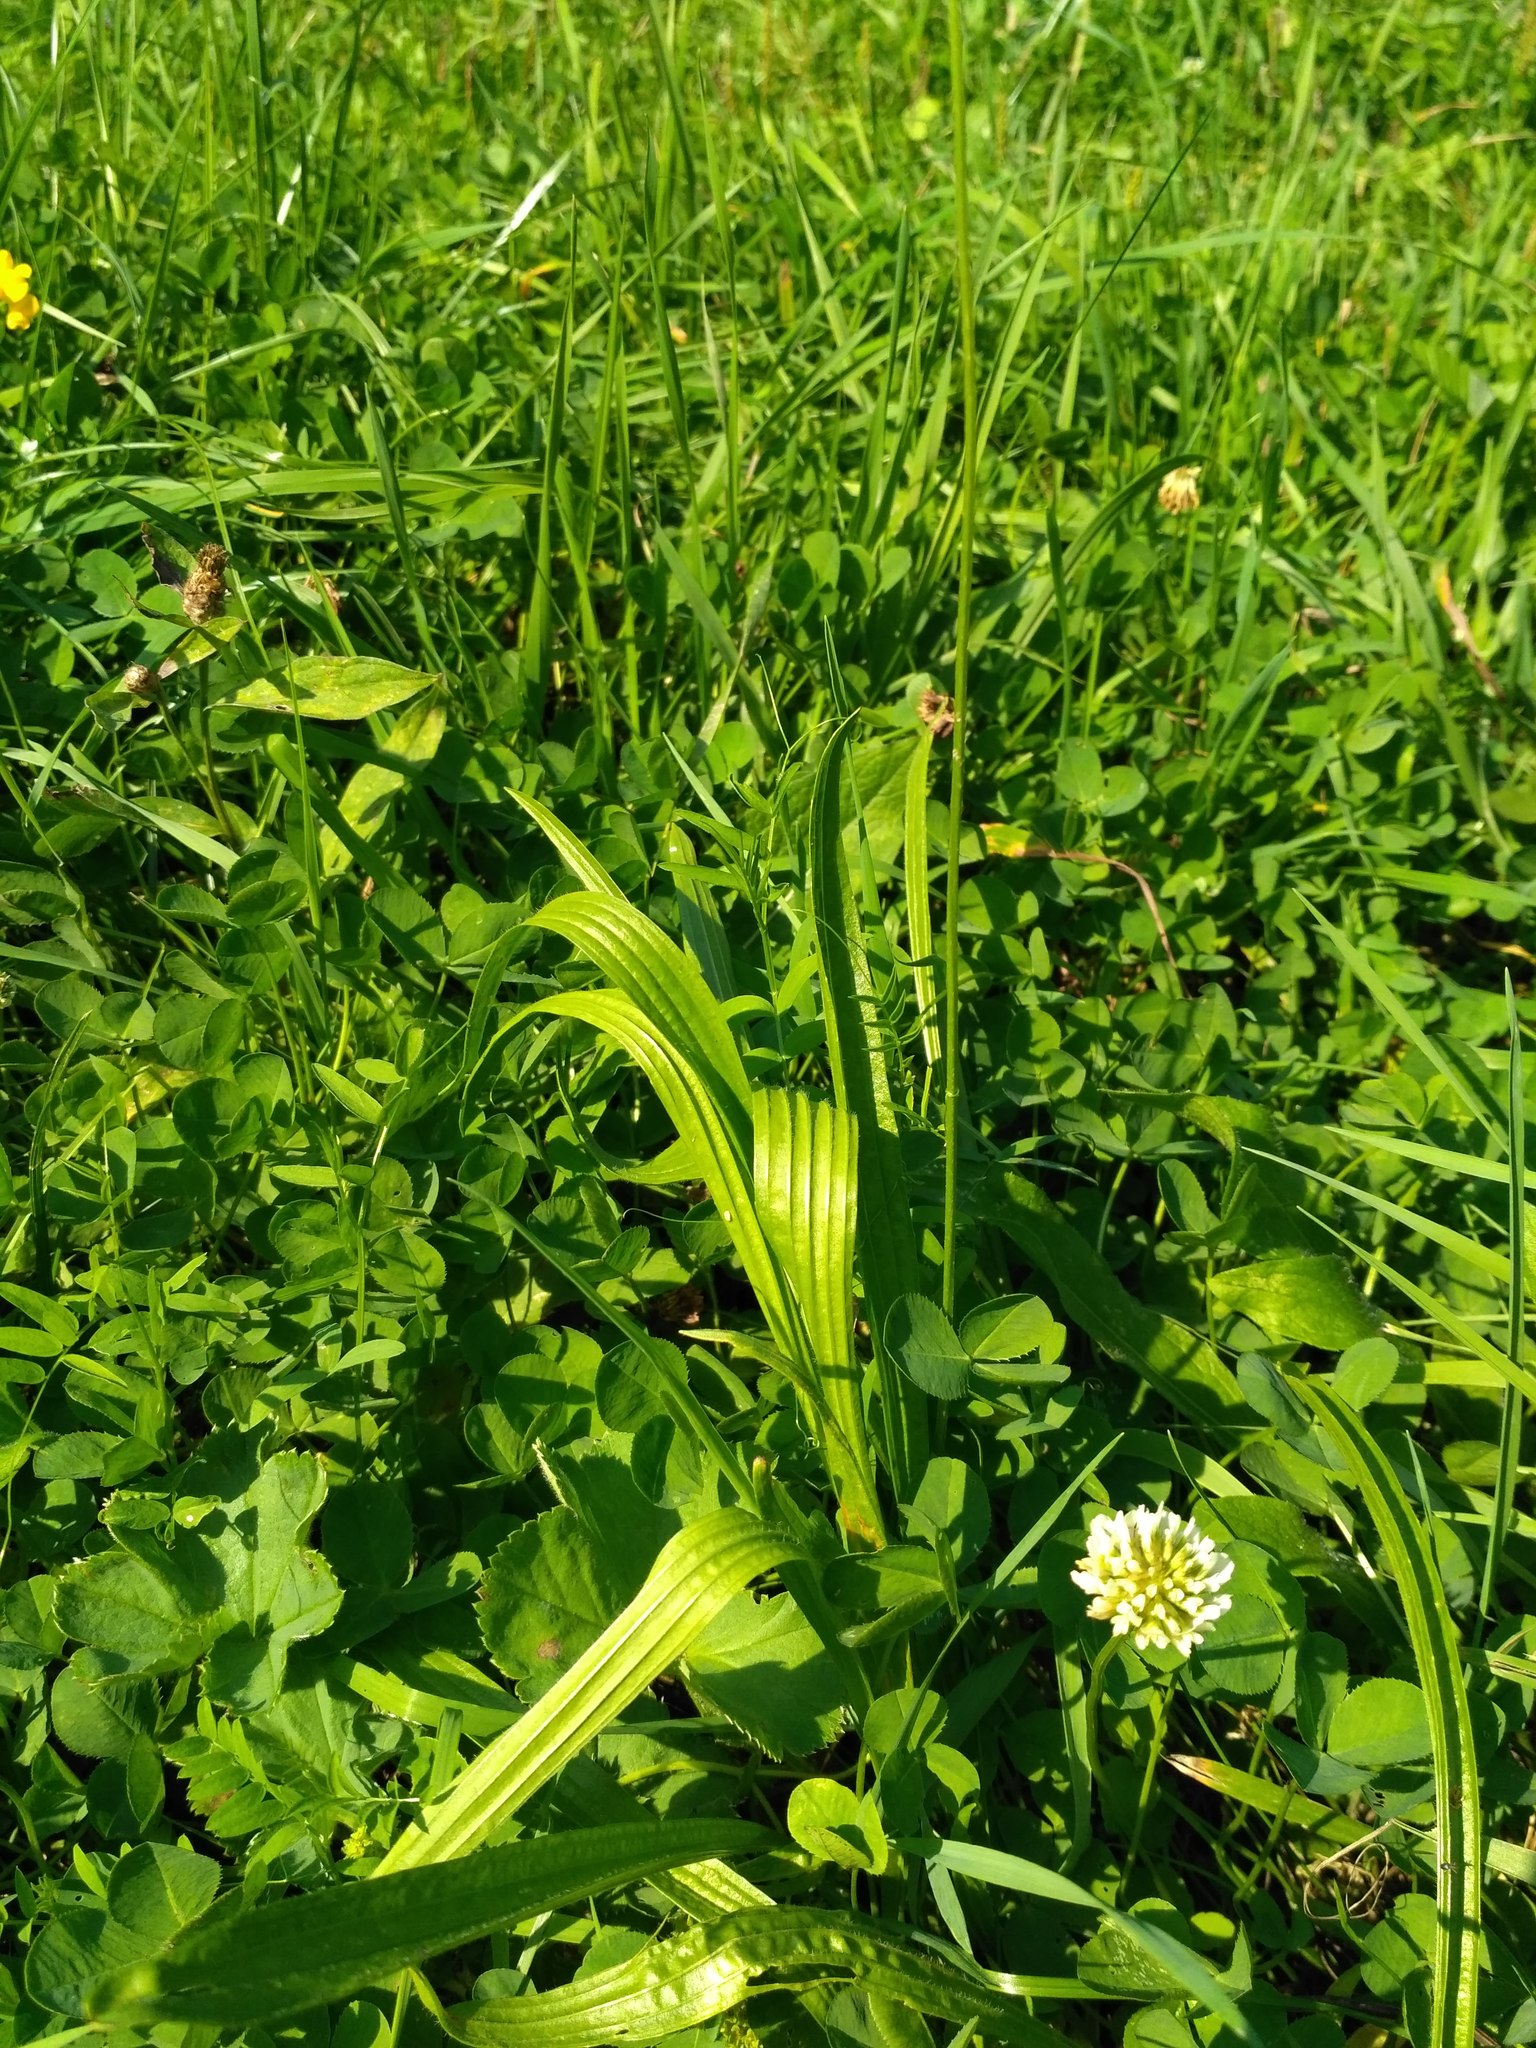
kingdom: Plantae
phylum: Tracheophyta
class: Magnoliopsida
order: Lamiales
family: Plantaginaceae
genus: Plantago
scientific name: Plantago lanceolata
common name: Ribwort plantain
